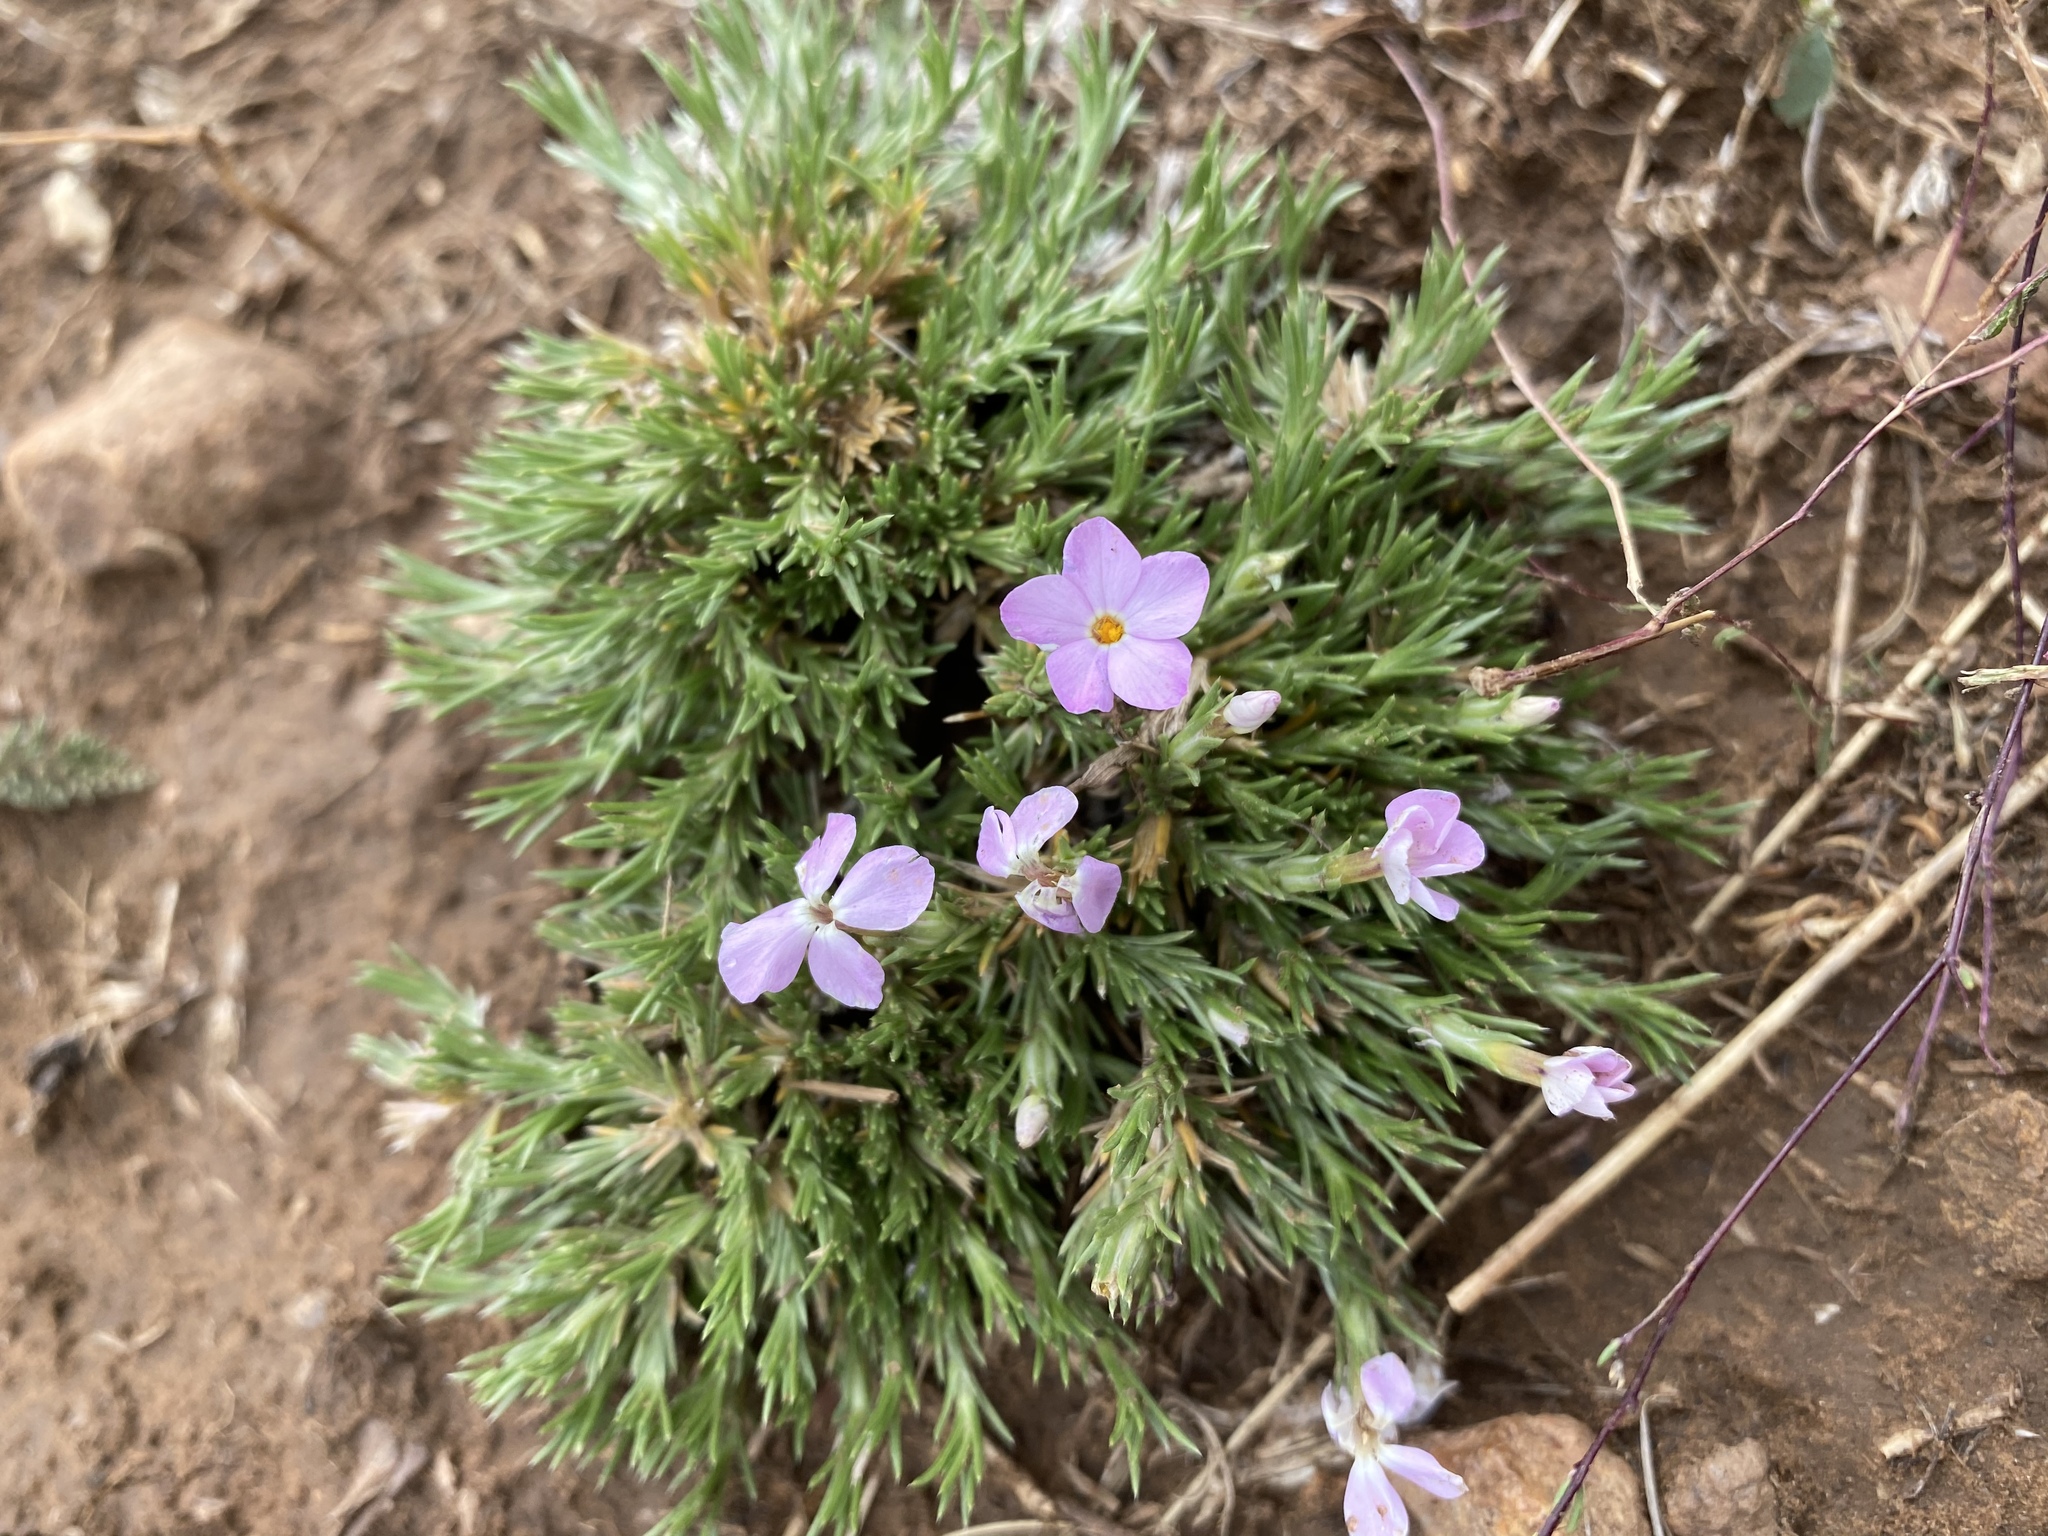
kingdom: Plantae
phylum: Tracheophyta
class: Magnoliopsida
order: Ericales
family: Polemoniaceae
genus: Phlox
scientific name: Phlox austromontana
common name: Desert phlox
